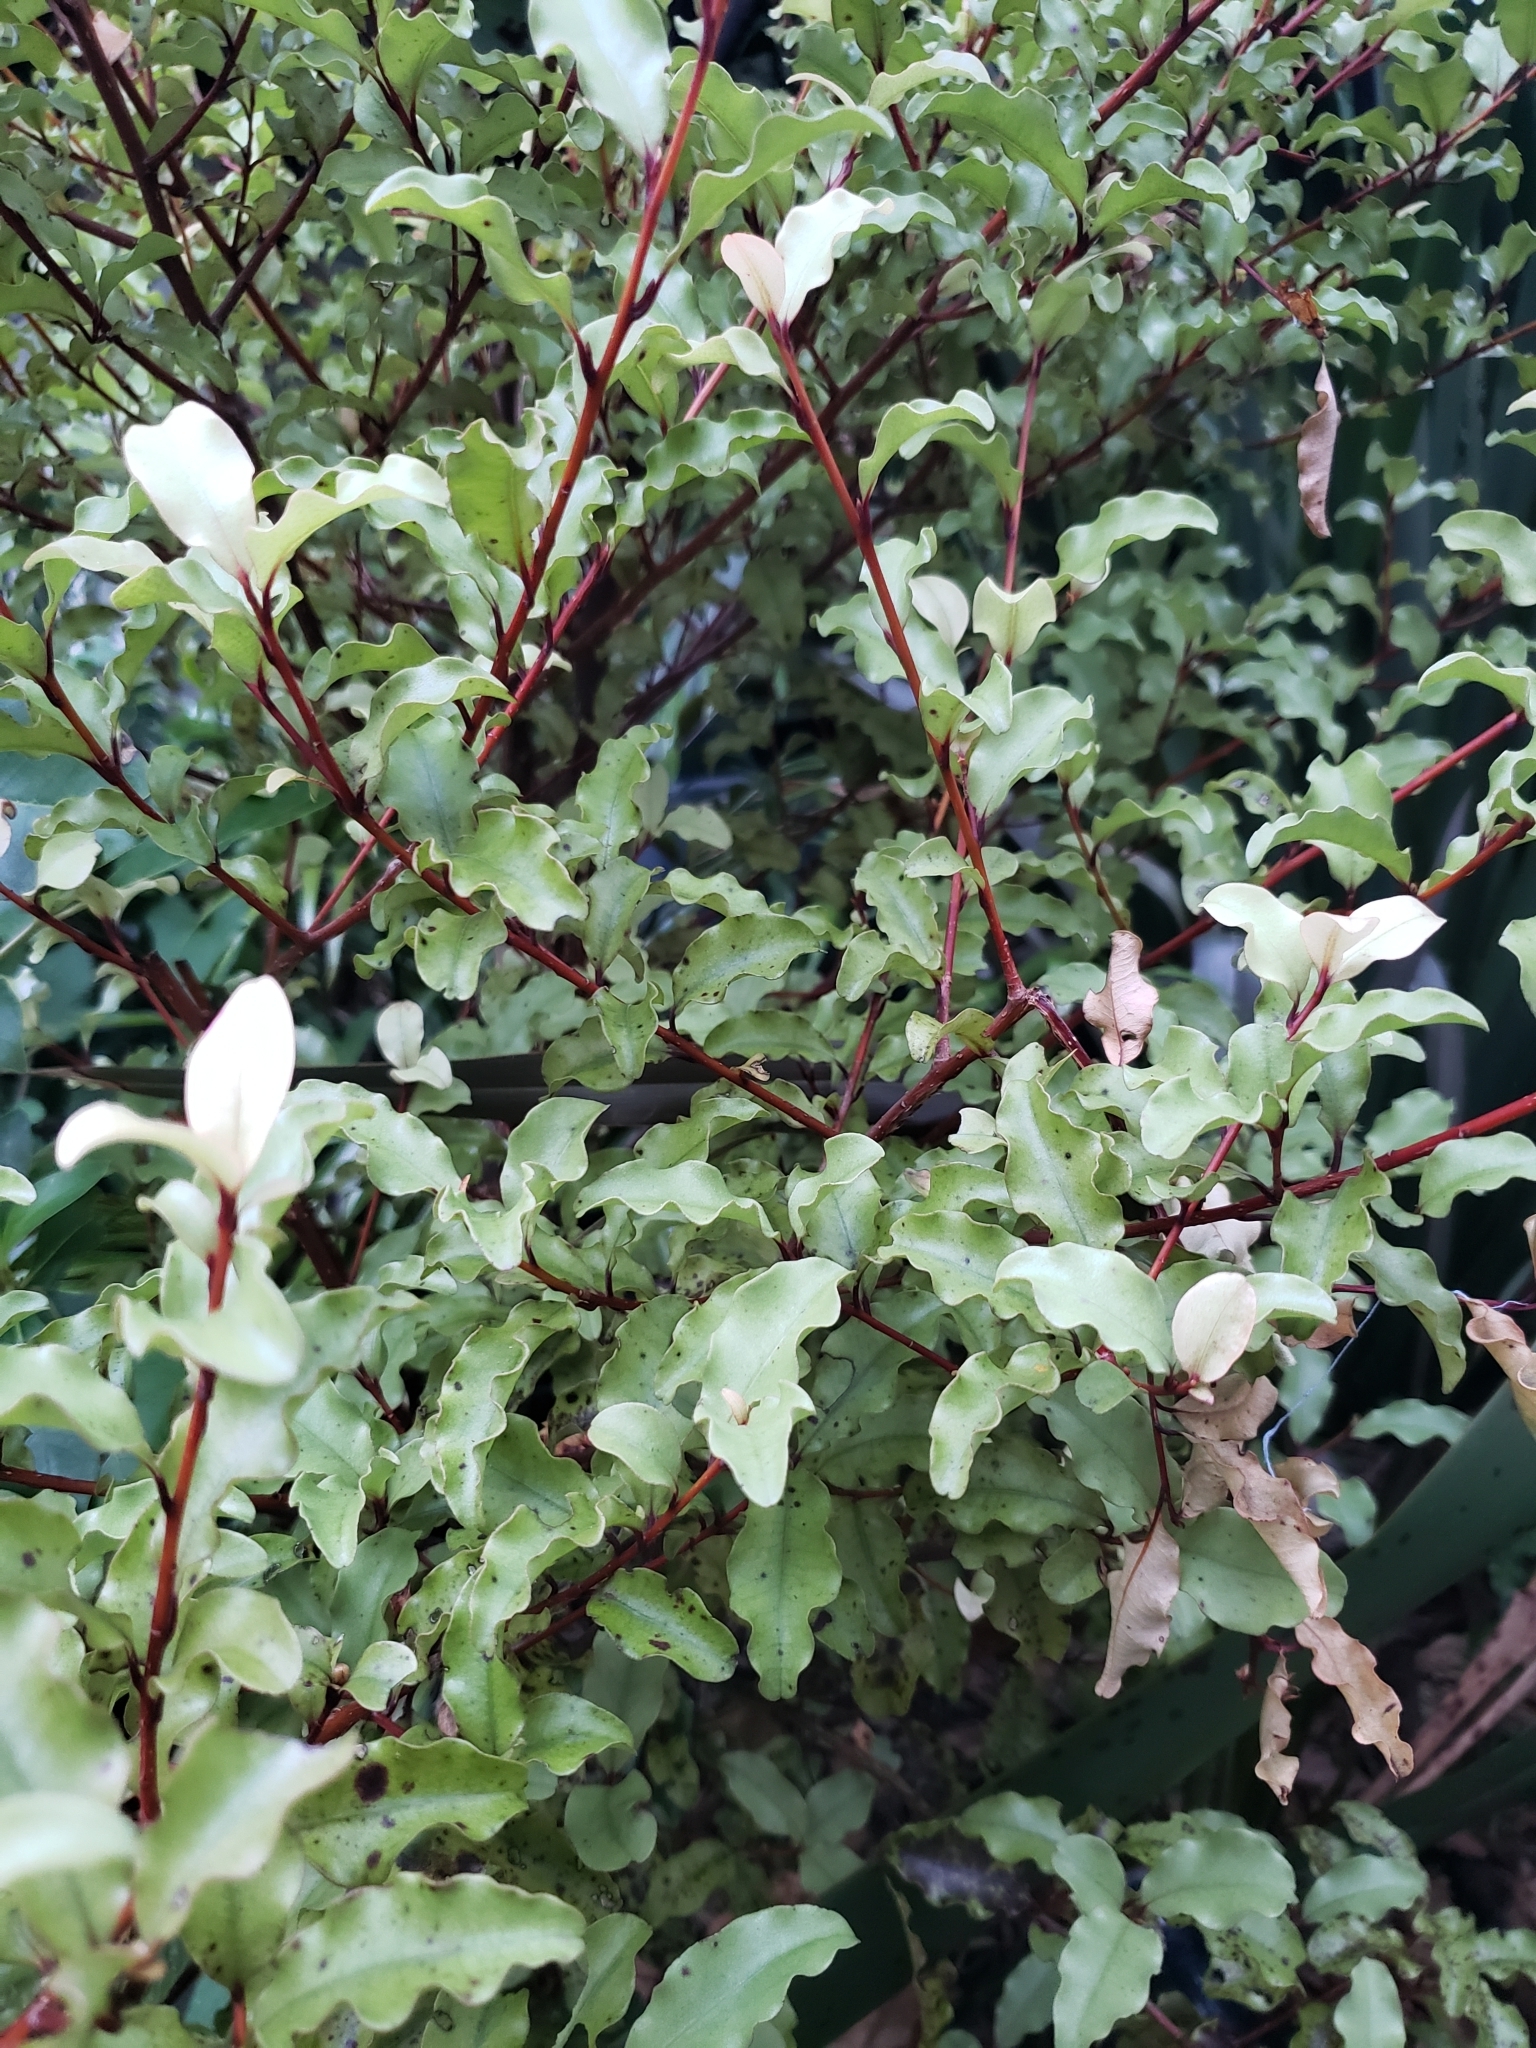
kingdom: Plantae
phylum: Tracheophyta
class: Magnoliopsida
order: Ericales
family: Primulaceae
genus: Myrsine
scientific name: Myrsine australis
